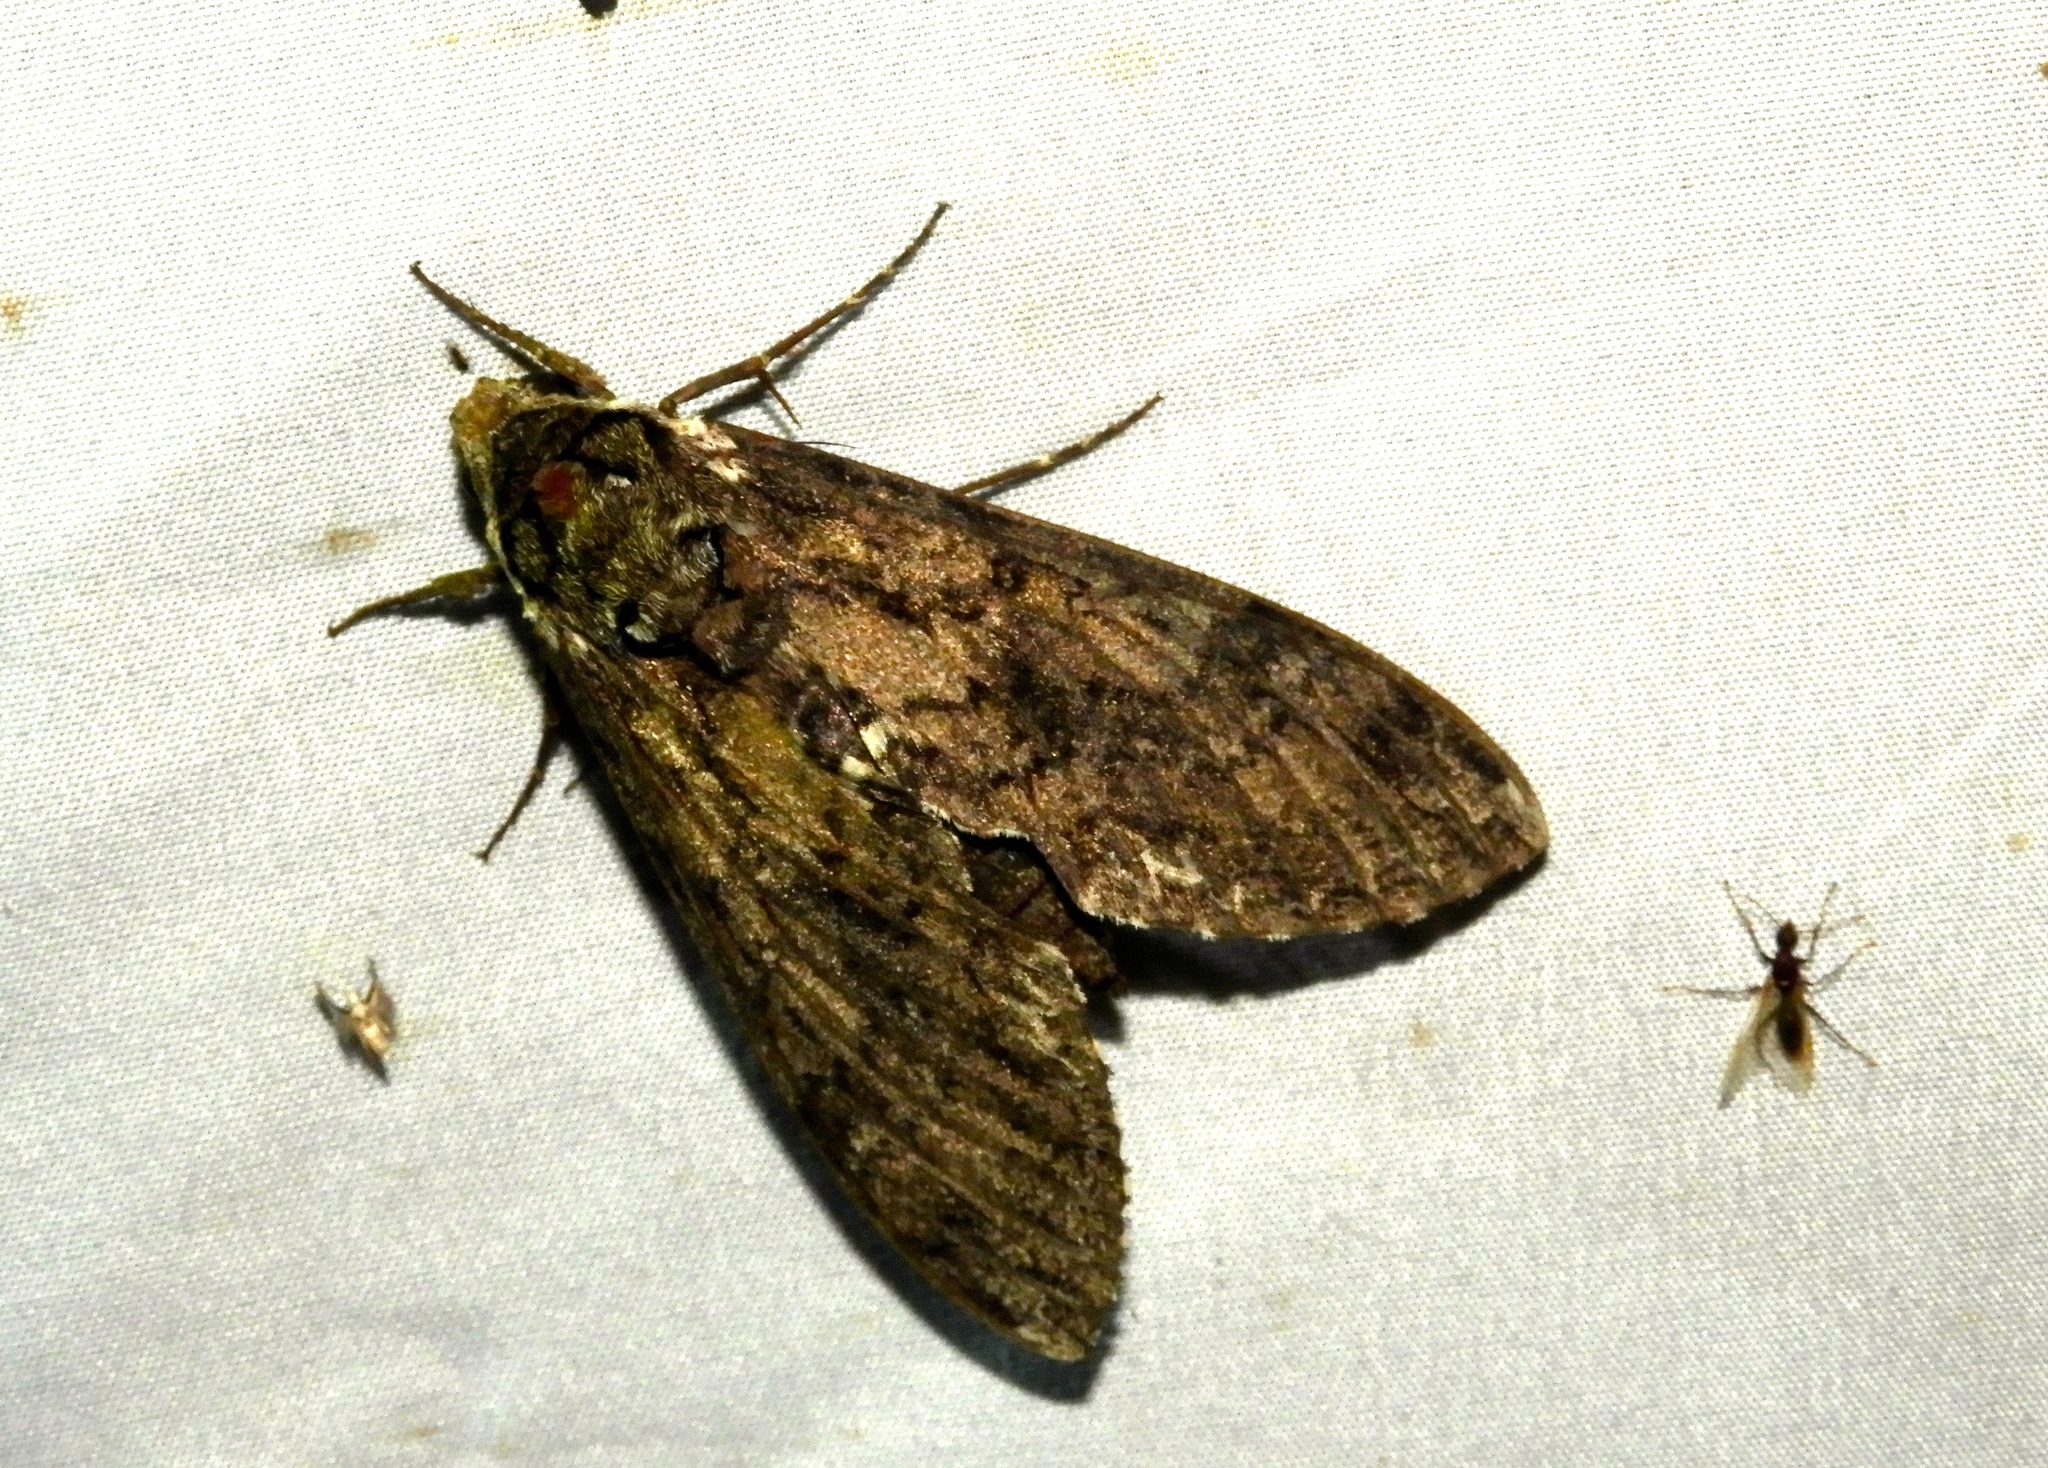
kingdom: Animalia
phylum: Arthropoda
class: Insecta
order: Lepidoptera
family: Sphingidae
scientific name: Sphingidae
